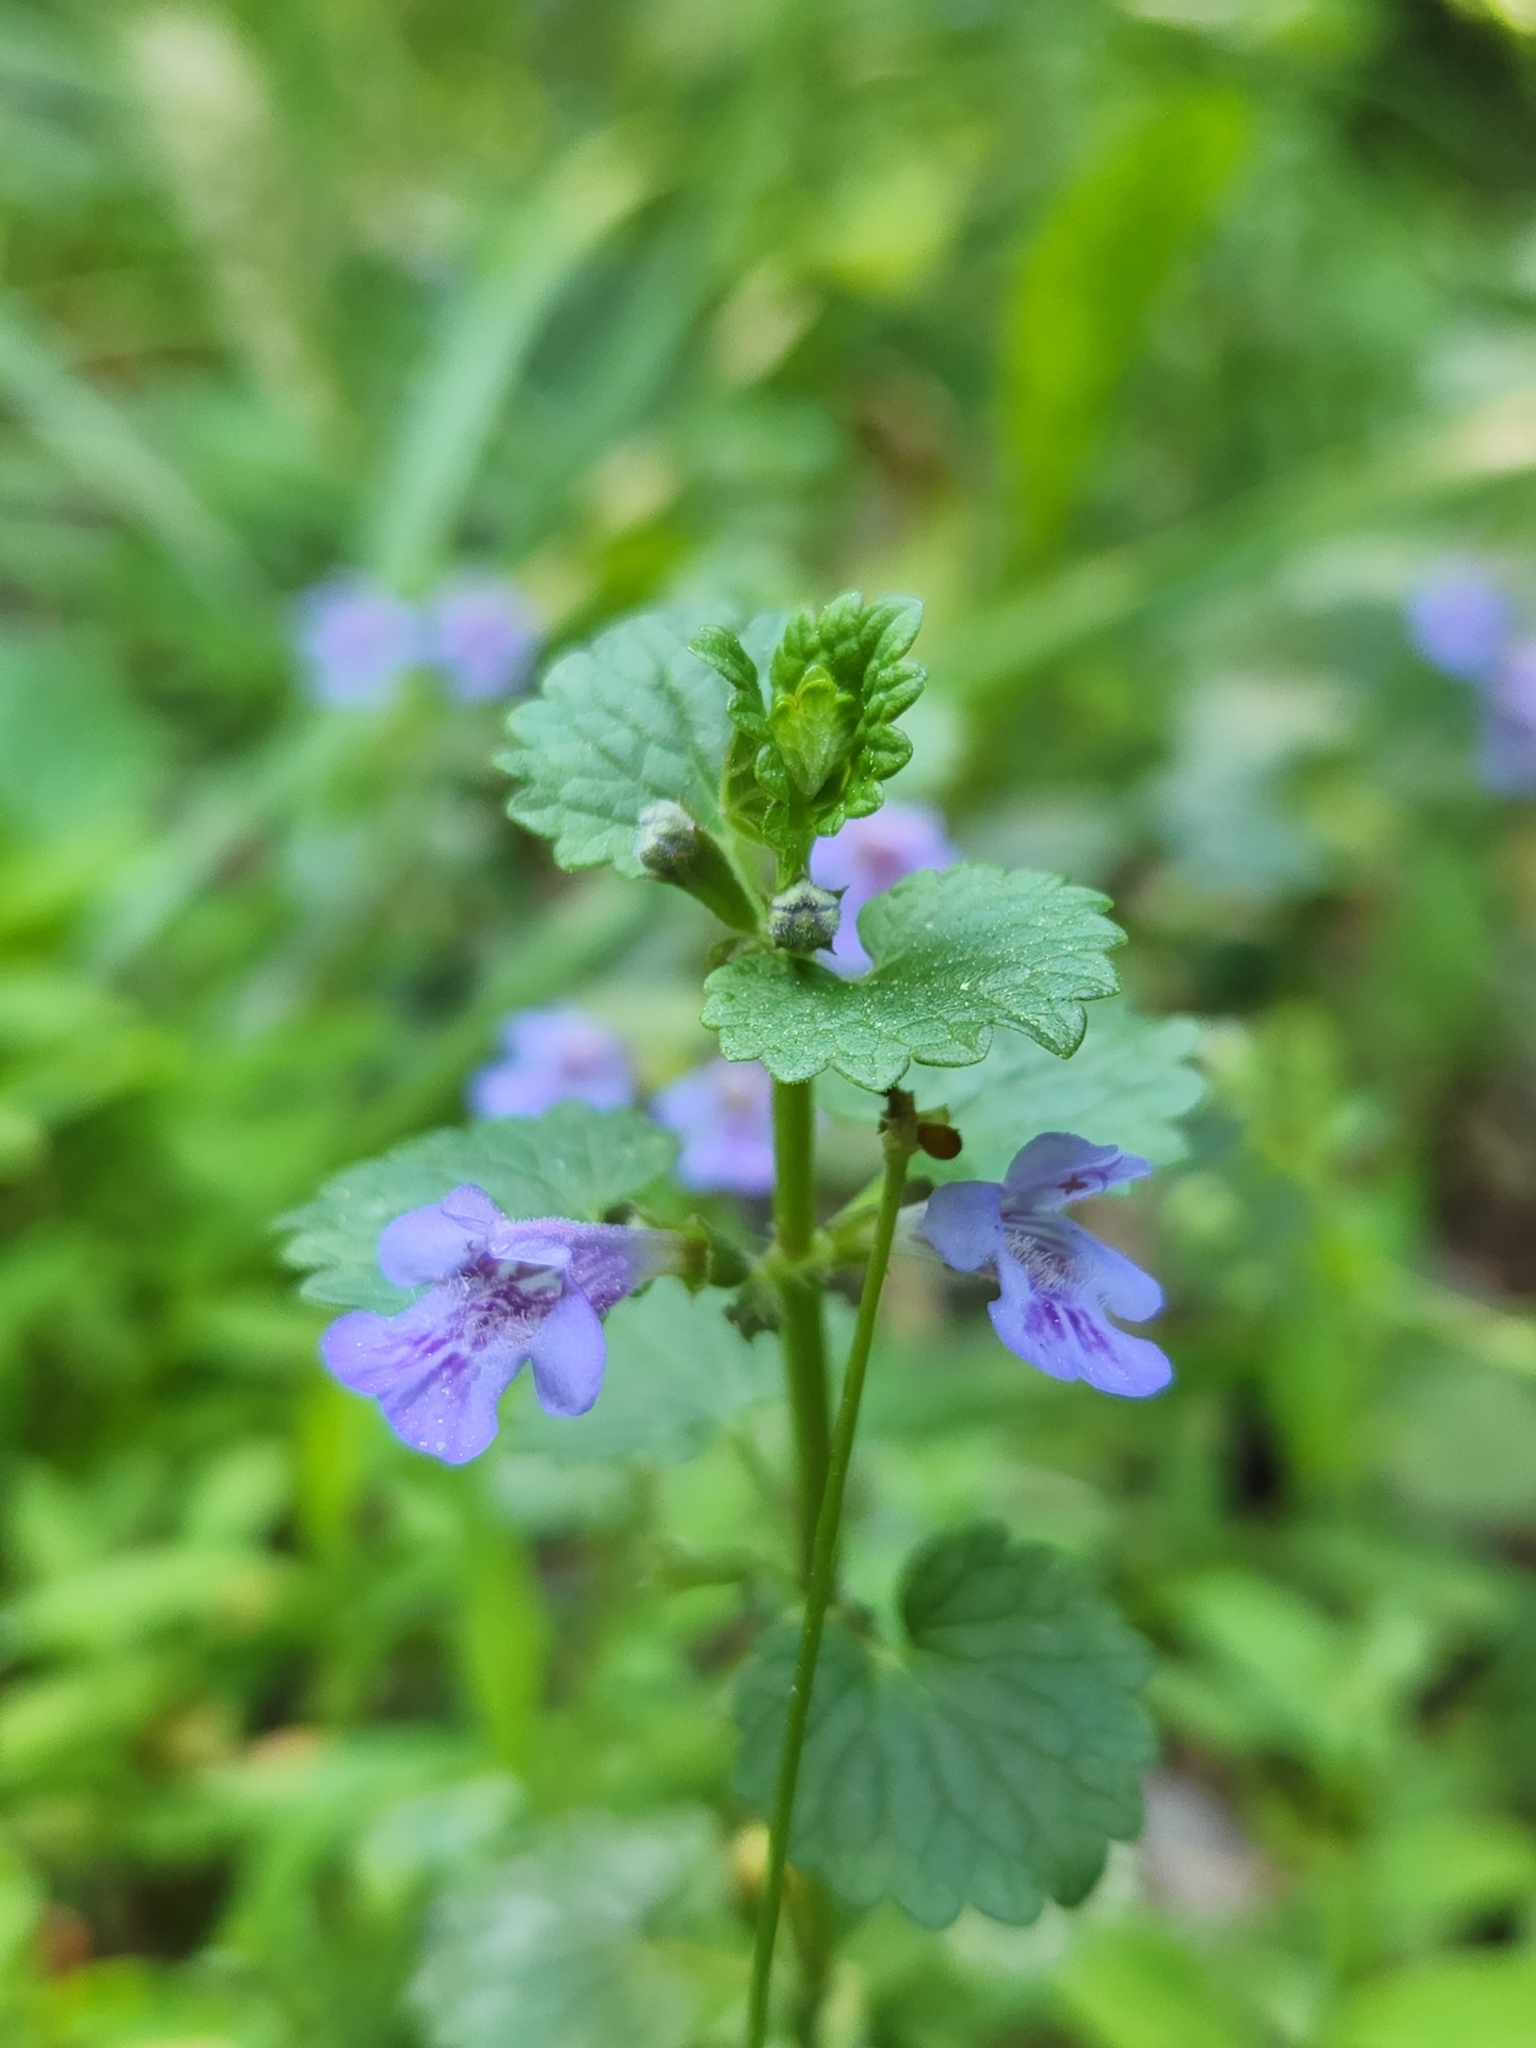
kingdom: Plantae
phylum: Tracheophyta
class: Magnoliopsida
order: Lamiales
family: Lamiaceae
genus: Glechoma
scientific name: Glechoma hederacea
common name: Ground ivy
